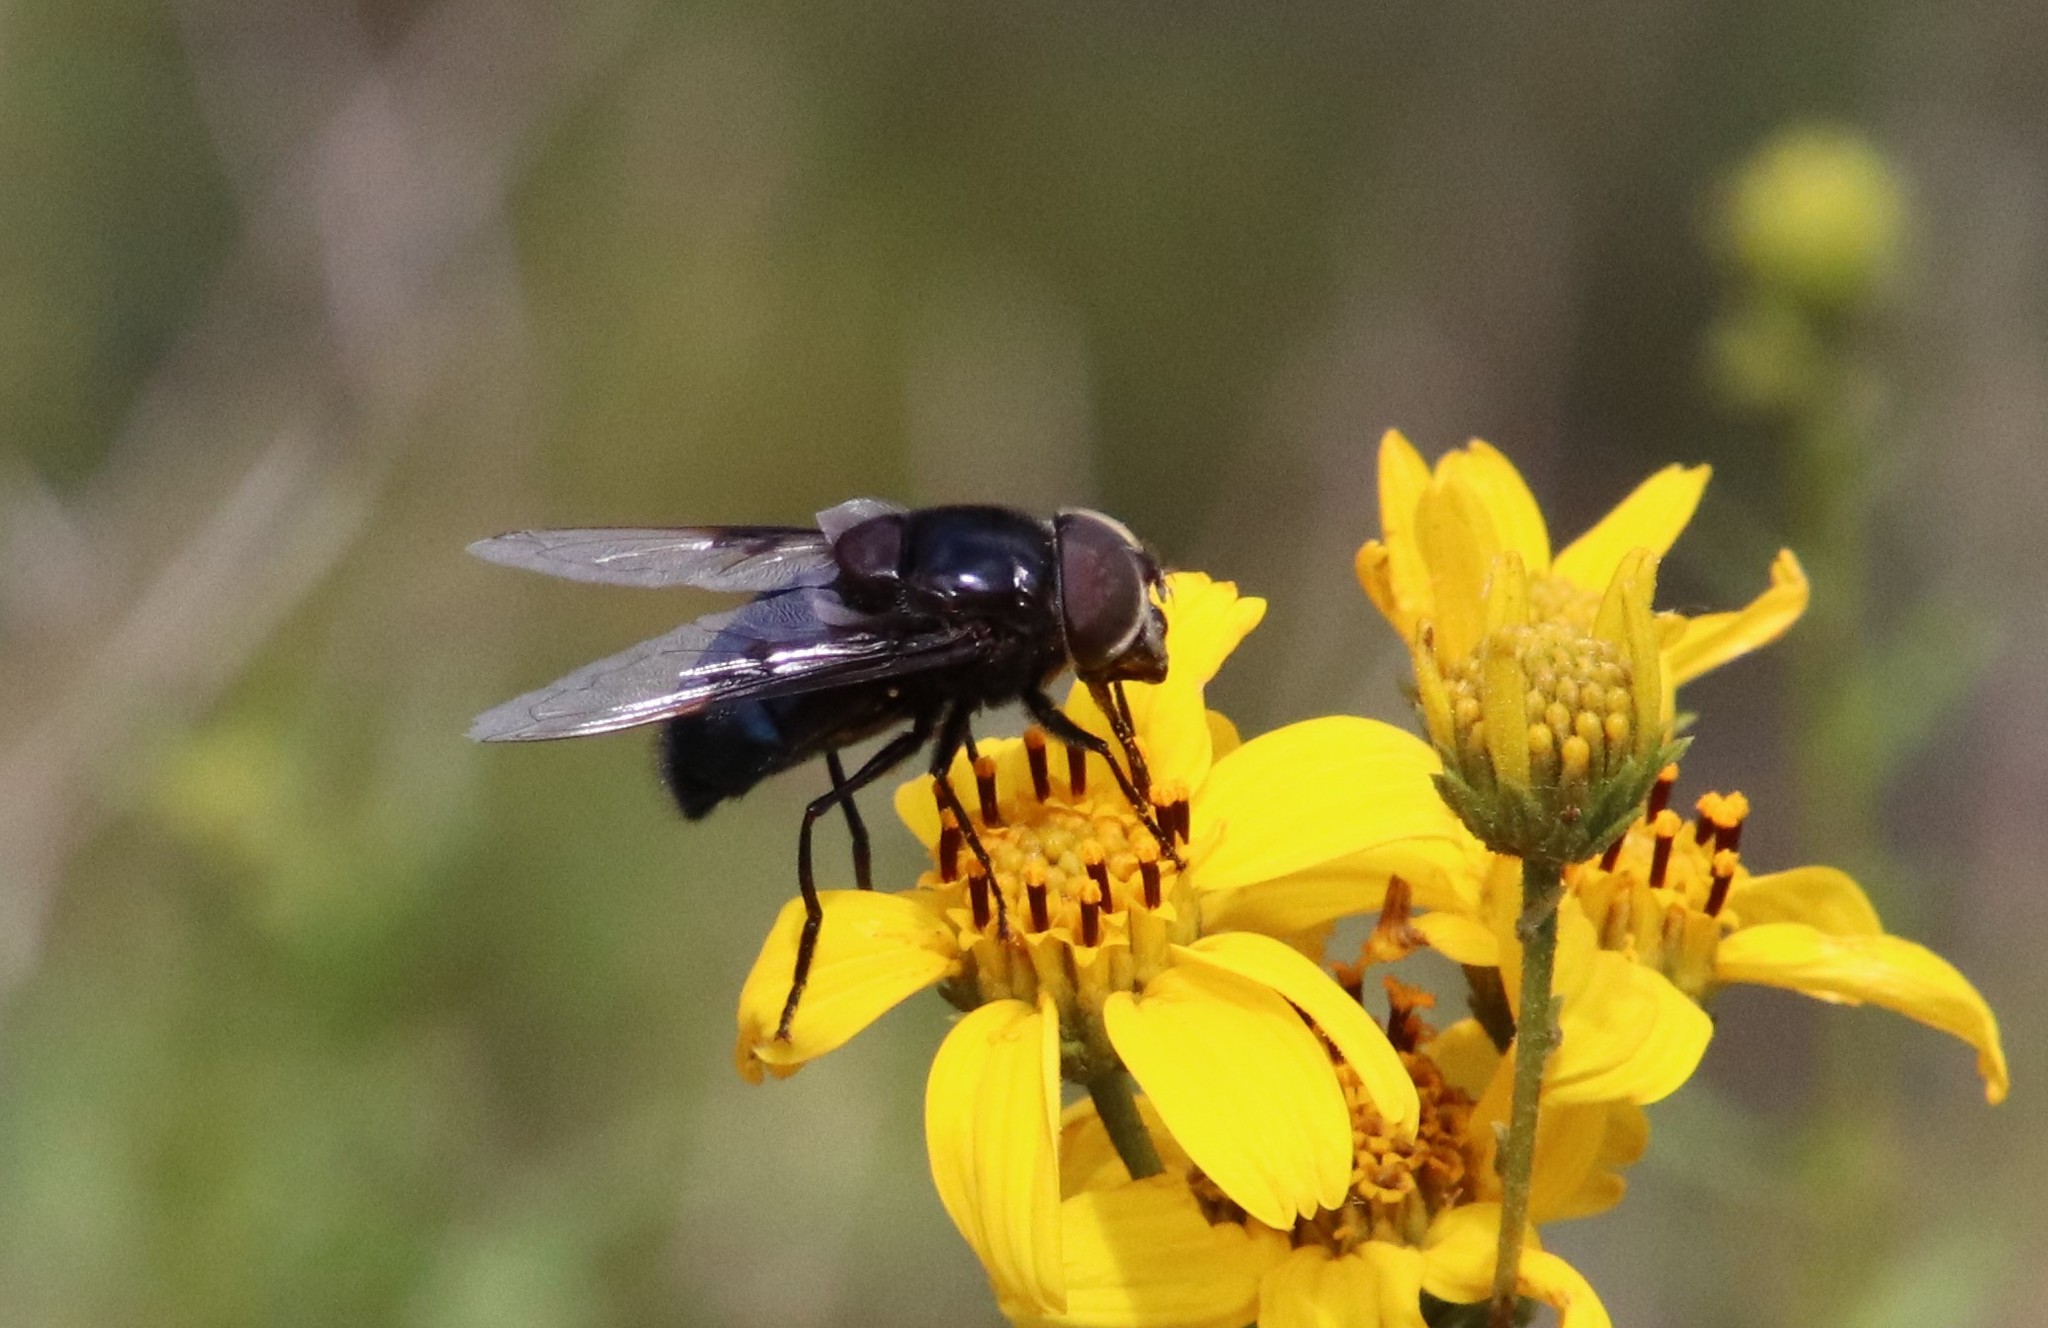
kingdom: Animalia
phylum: Arthropoda
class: Insecta
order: Diptera
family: Syrphidae
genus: Copestylum
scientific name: Copestylum
